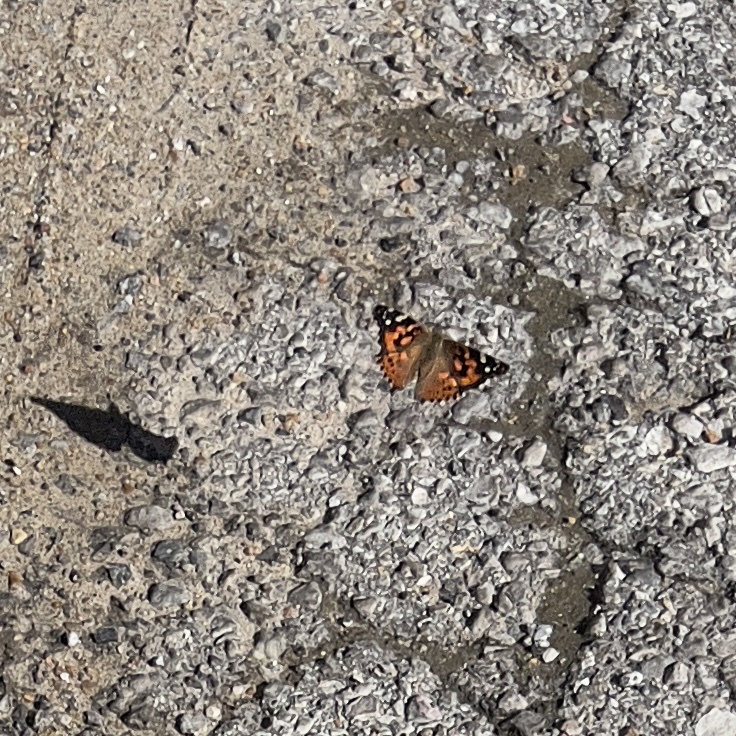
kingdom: Animalia
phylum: Arthropoda
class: Insecta
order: Lepidoptera
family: Nymphalidae
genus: Vanessa
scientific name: Vanessa cardui
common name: Painted lady
